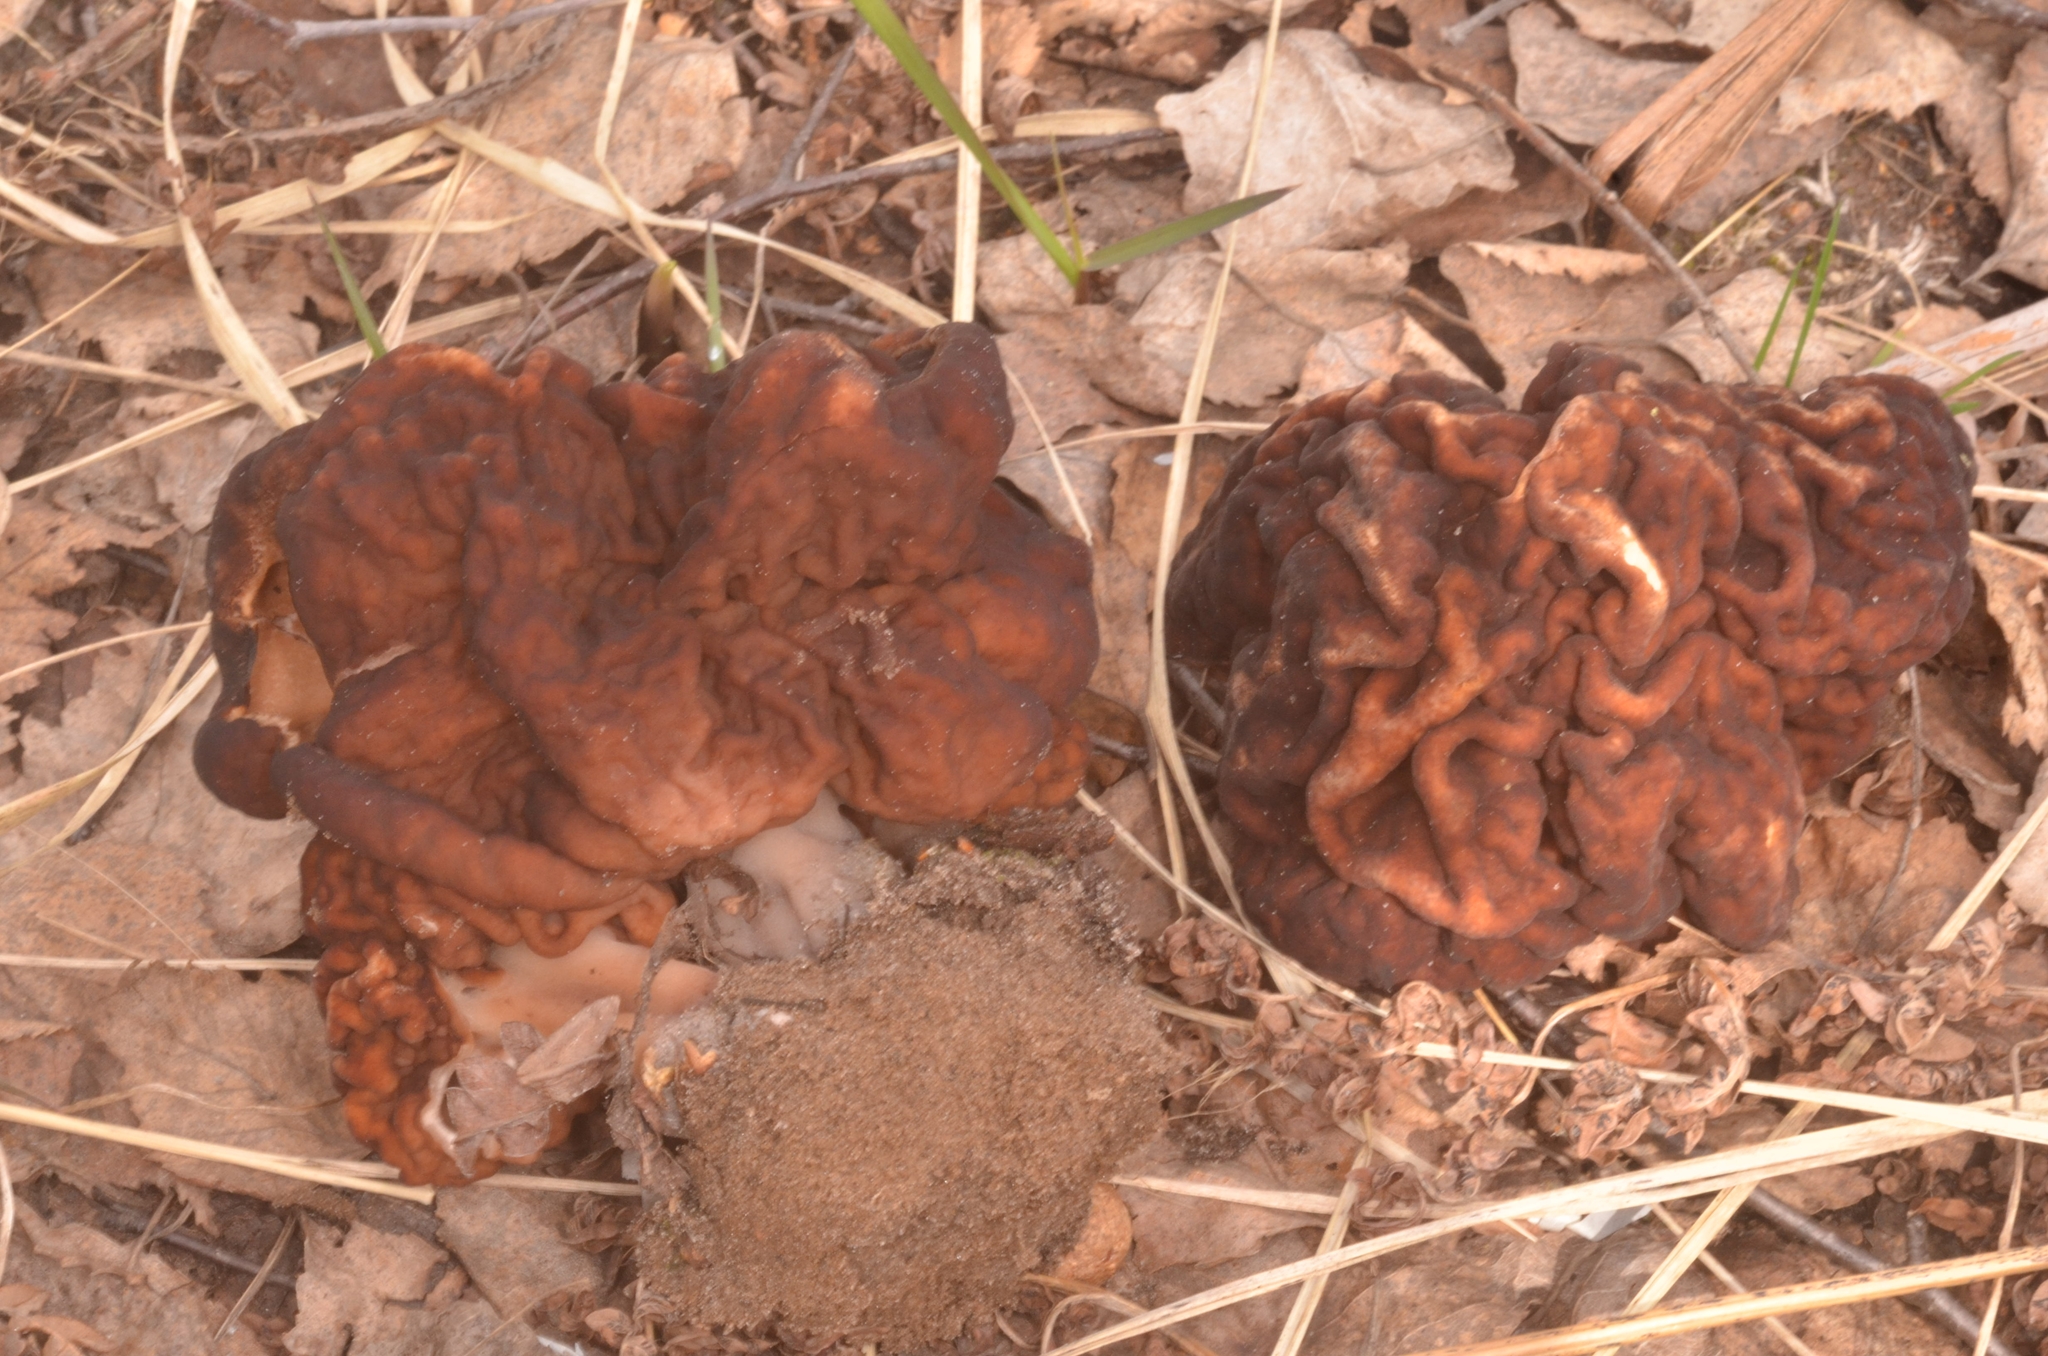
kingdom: Fungi
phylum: Ascomycota
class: Pezizomycetes
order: Pezizales
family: Discinaceae
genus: Gyromitra
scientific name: Gyromitra esculenta
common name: False morel
